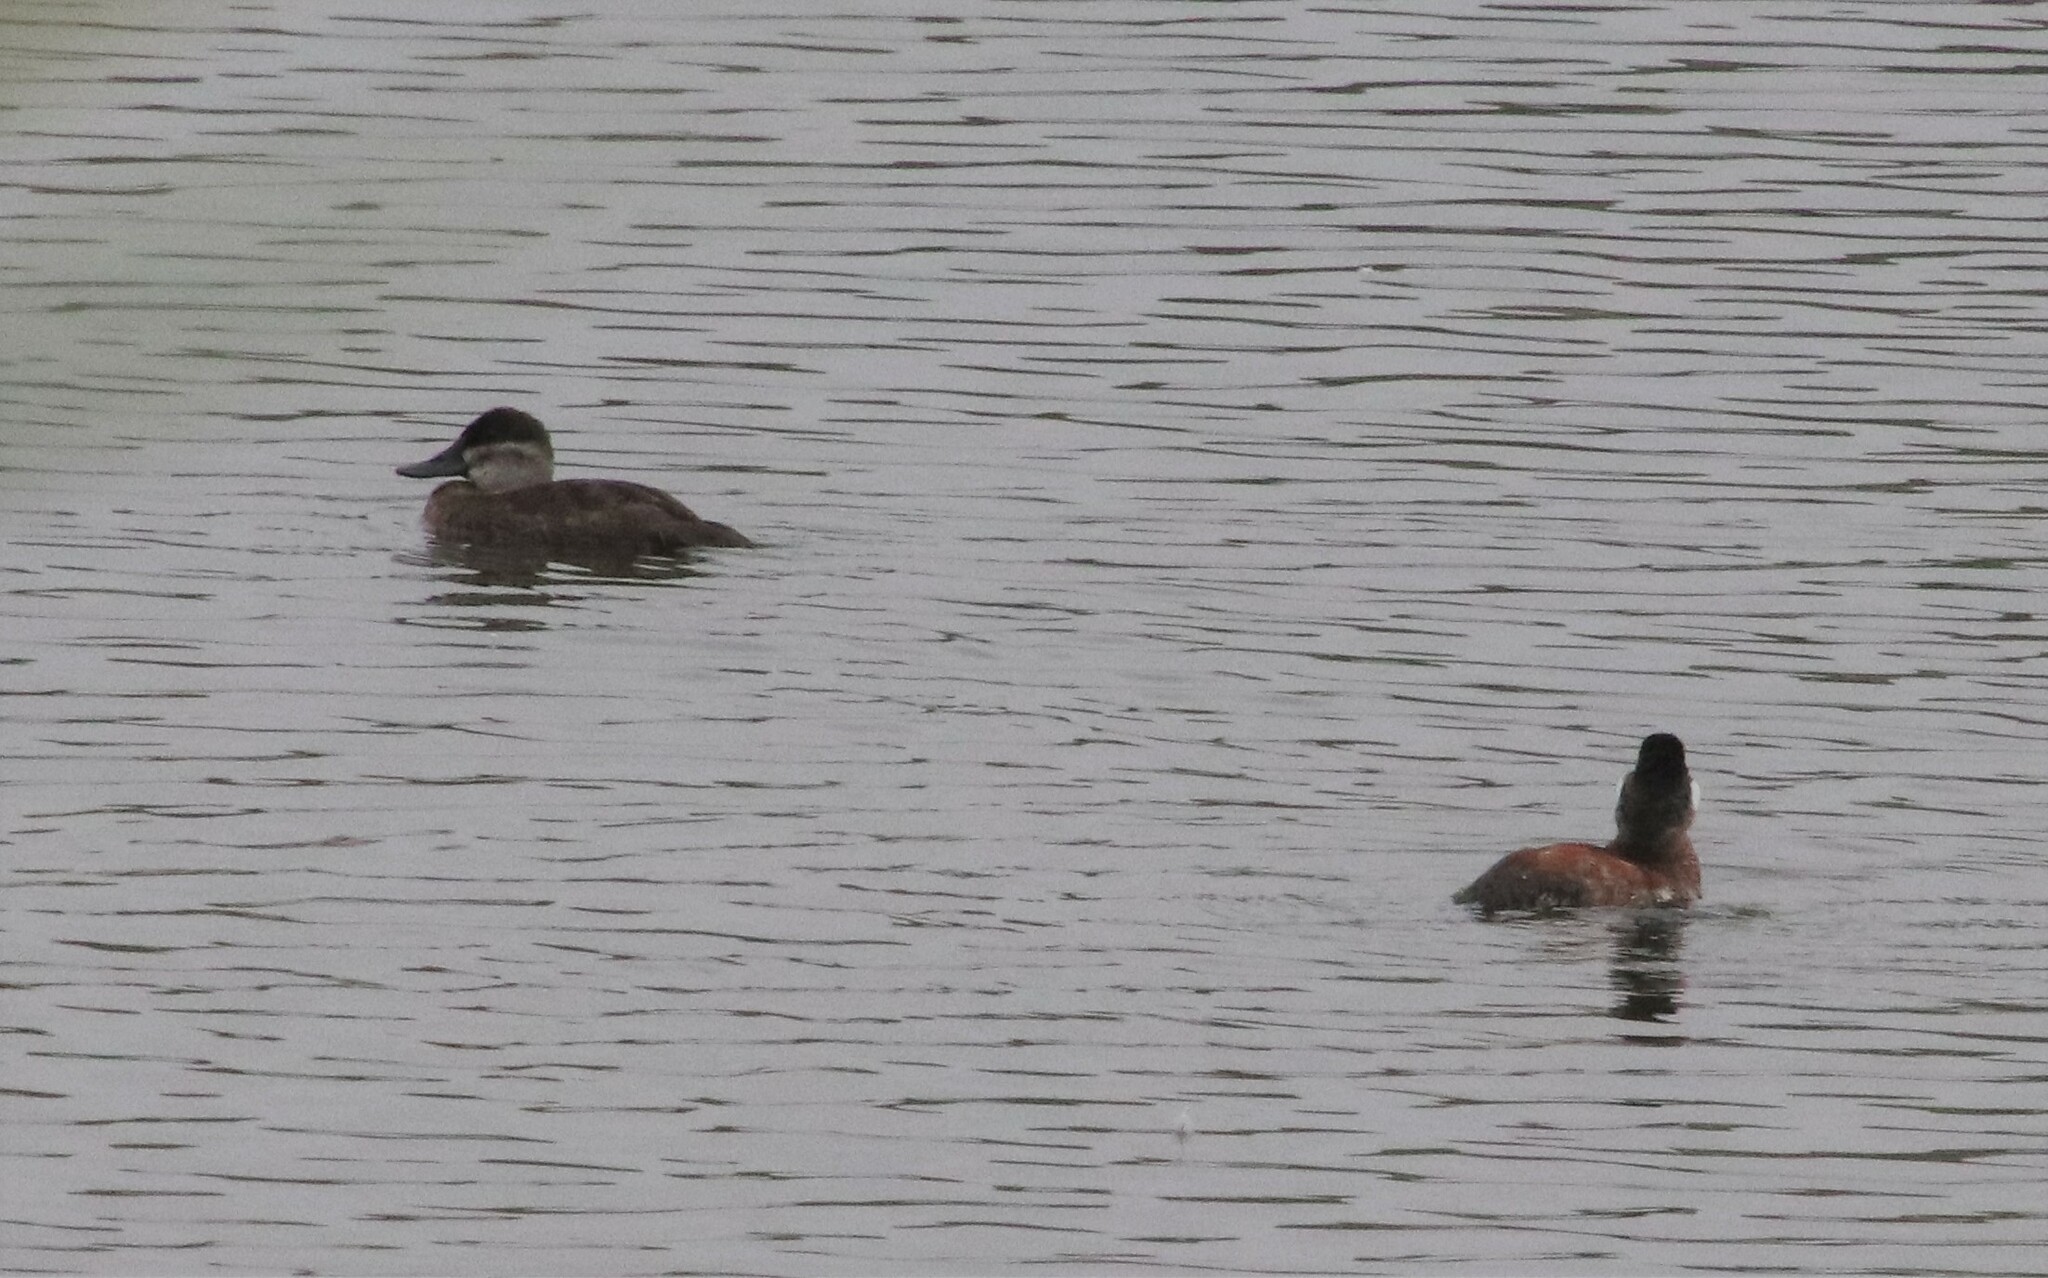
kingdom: Animalia
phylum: Chordata
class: Aves
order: Anseriformes
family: Anatidae
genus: Oxyura
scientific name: Oxyura jamaicensis
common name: Ruddy duck
